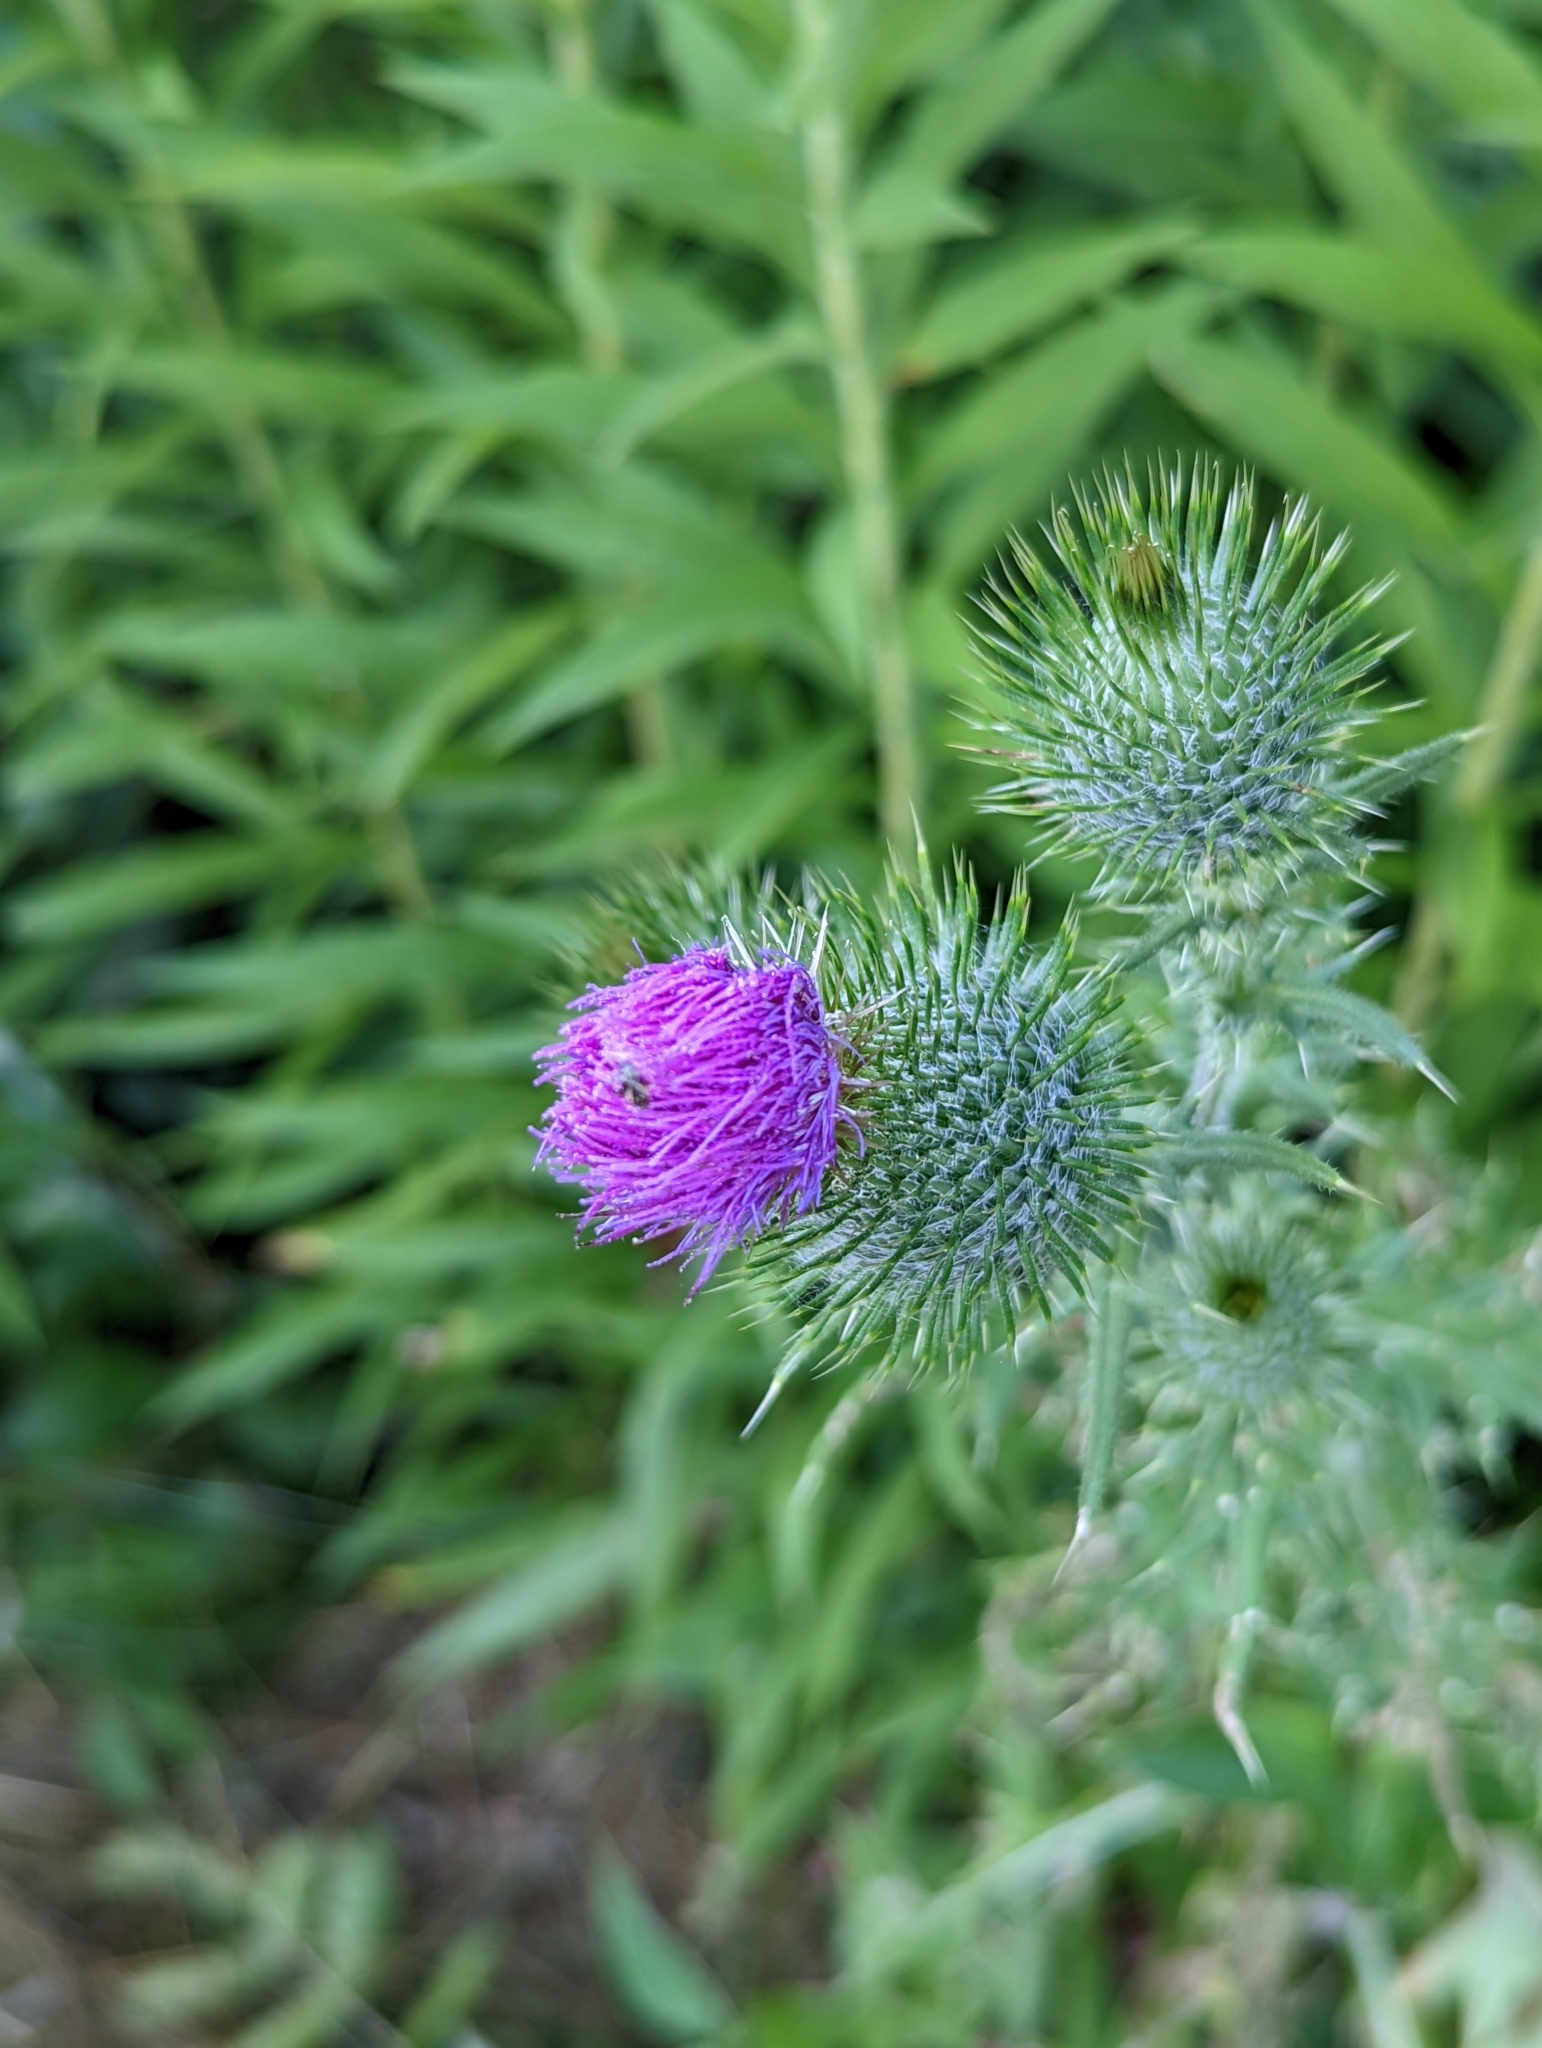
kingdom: Plantae
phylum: Tracheophyta
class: Magnoliopsida
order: Asterales
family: Asteraceae
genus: Cirsium
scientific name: Cirsium vulgare
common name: Bull thistle
